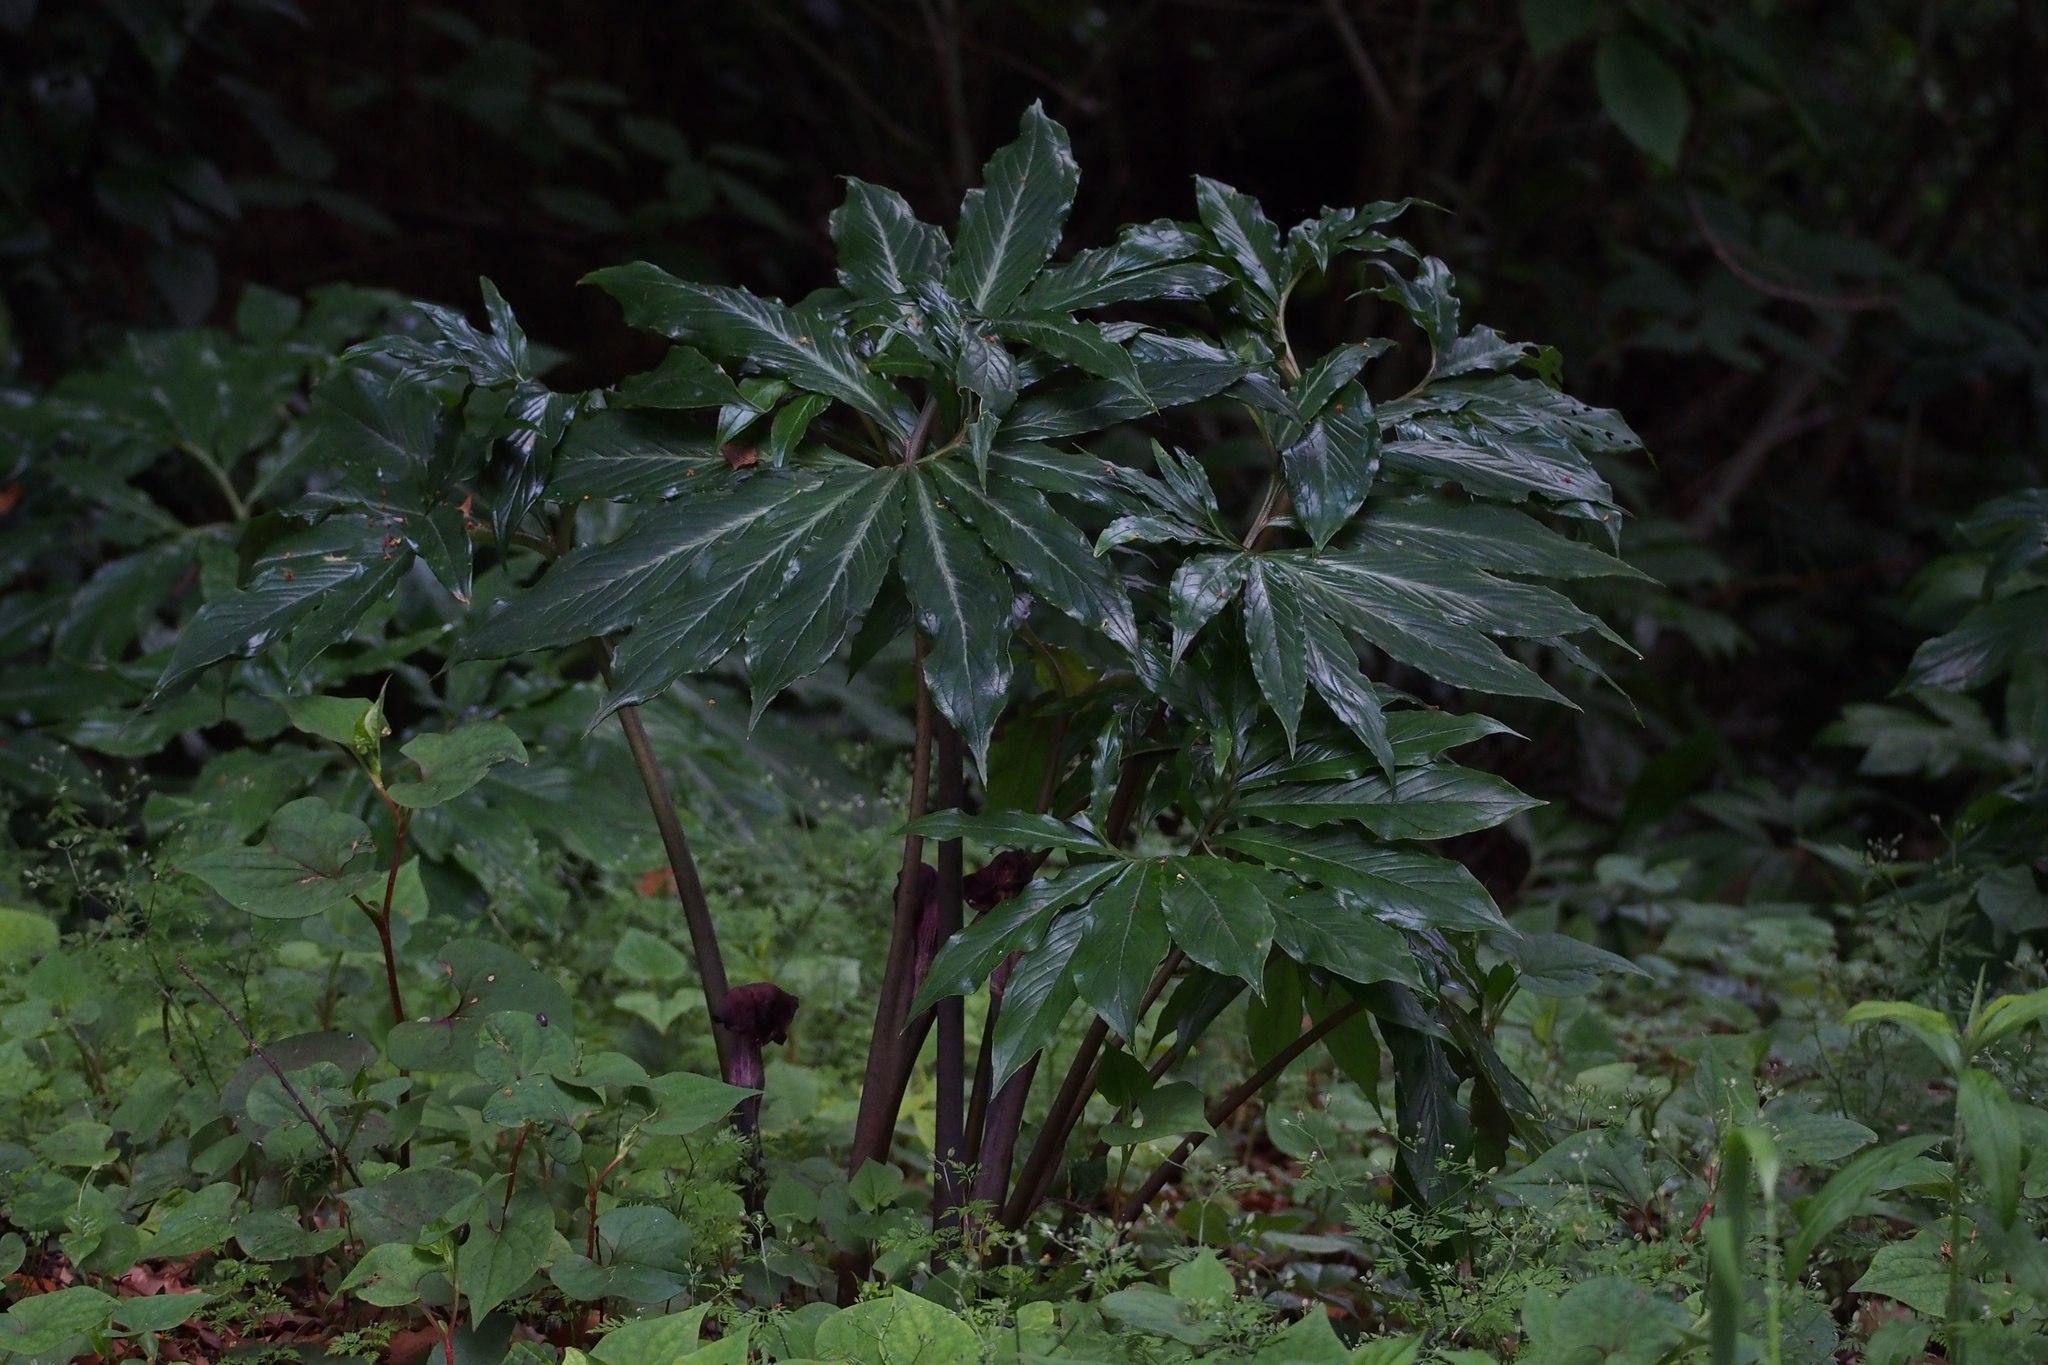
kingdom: Plantae
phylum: Tracheophyta
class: Liliopsida
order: Alismatales
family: Araceae
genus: Arisaema
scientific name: Arisaema thunbergii
